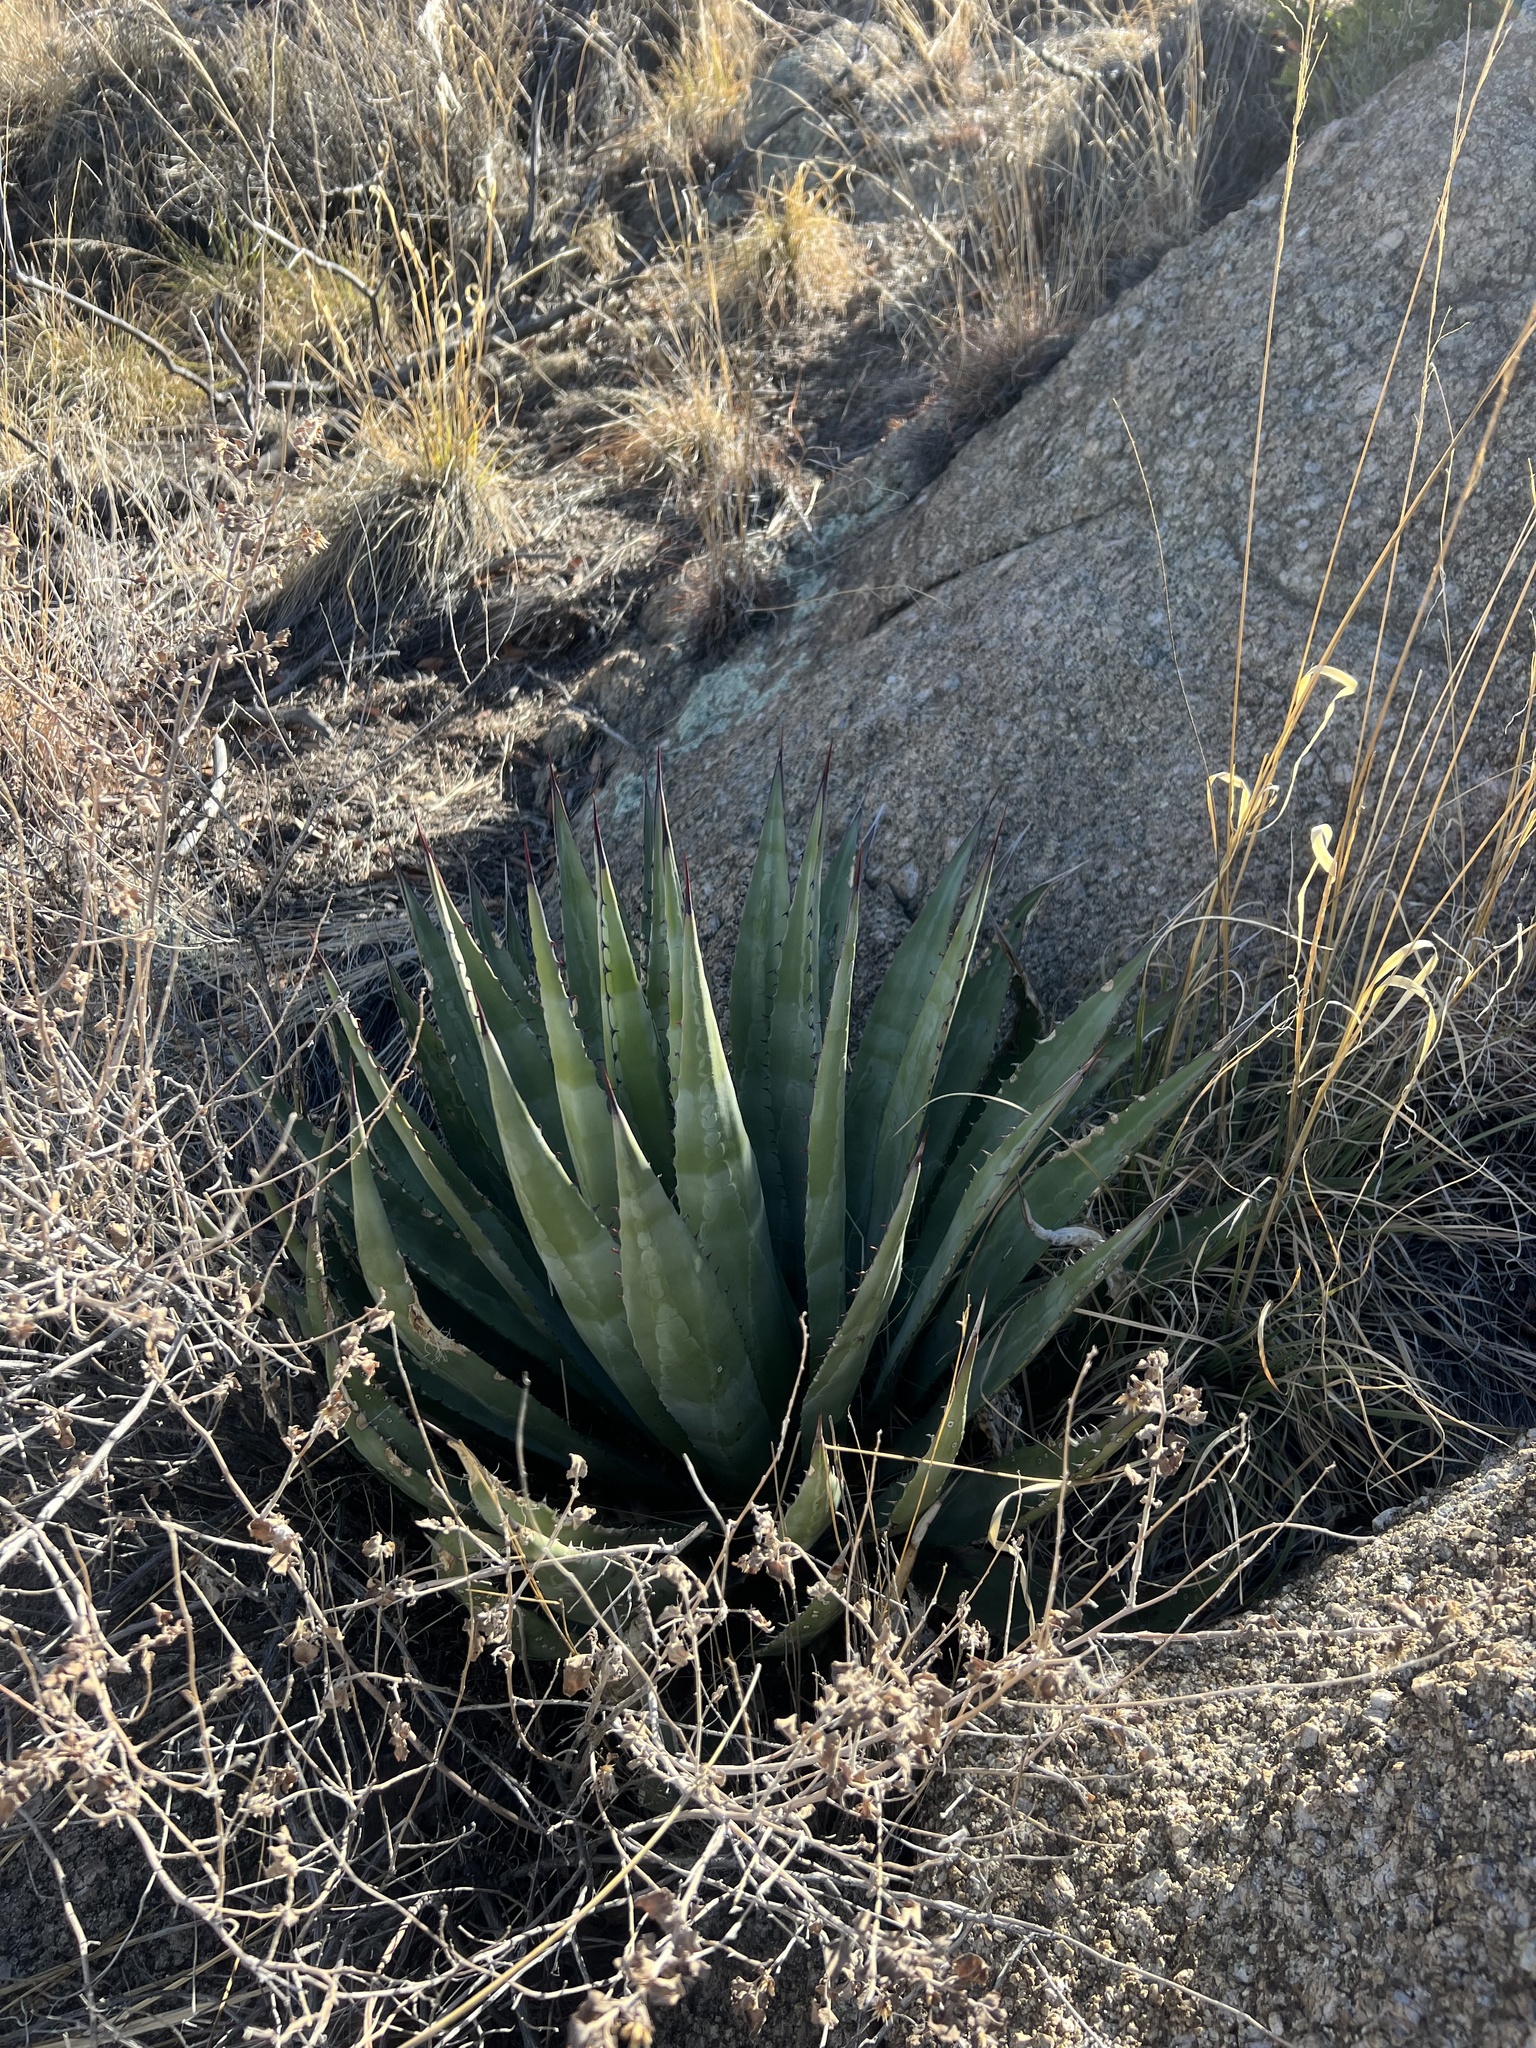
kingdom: Plantae
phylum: Tracheophyta
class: Liliopsida
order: Asparagales
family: Asparagaceae
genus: Agave
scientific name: Agave palmeri
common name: Palmer agave
